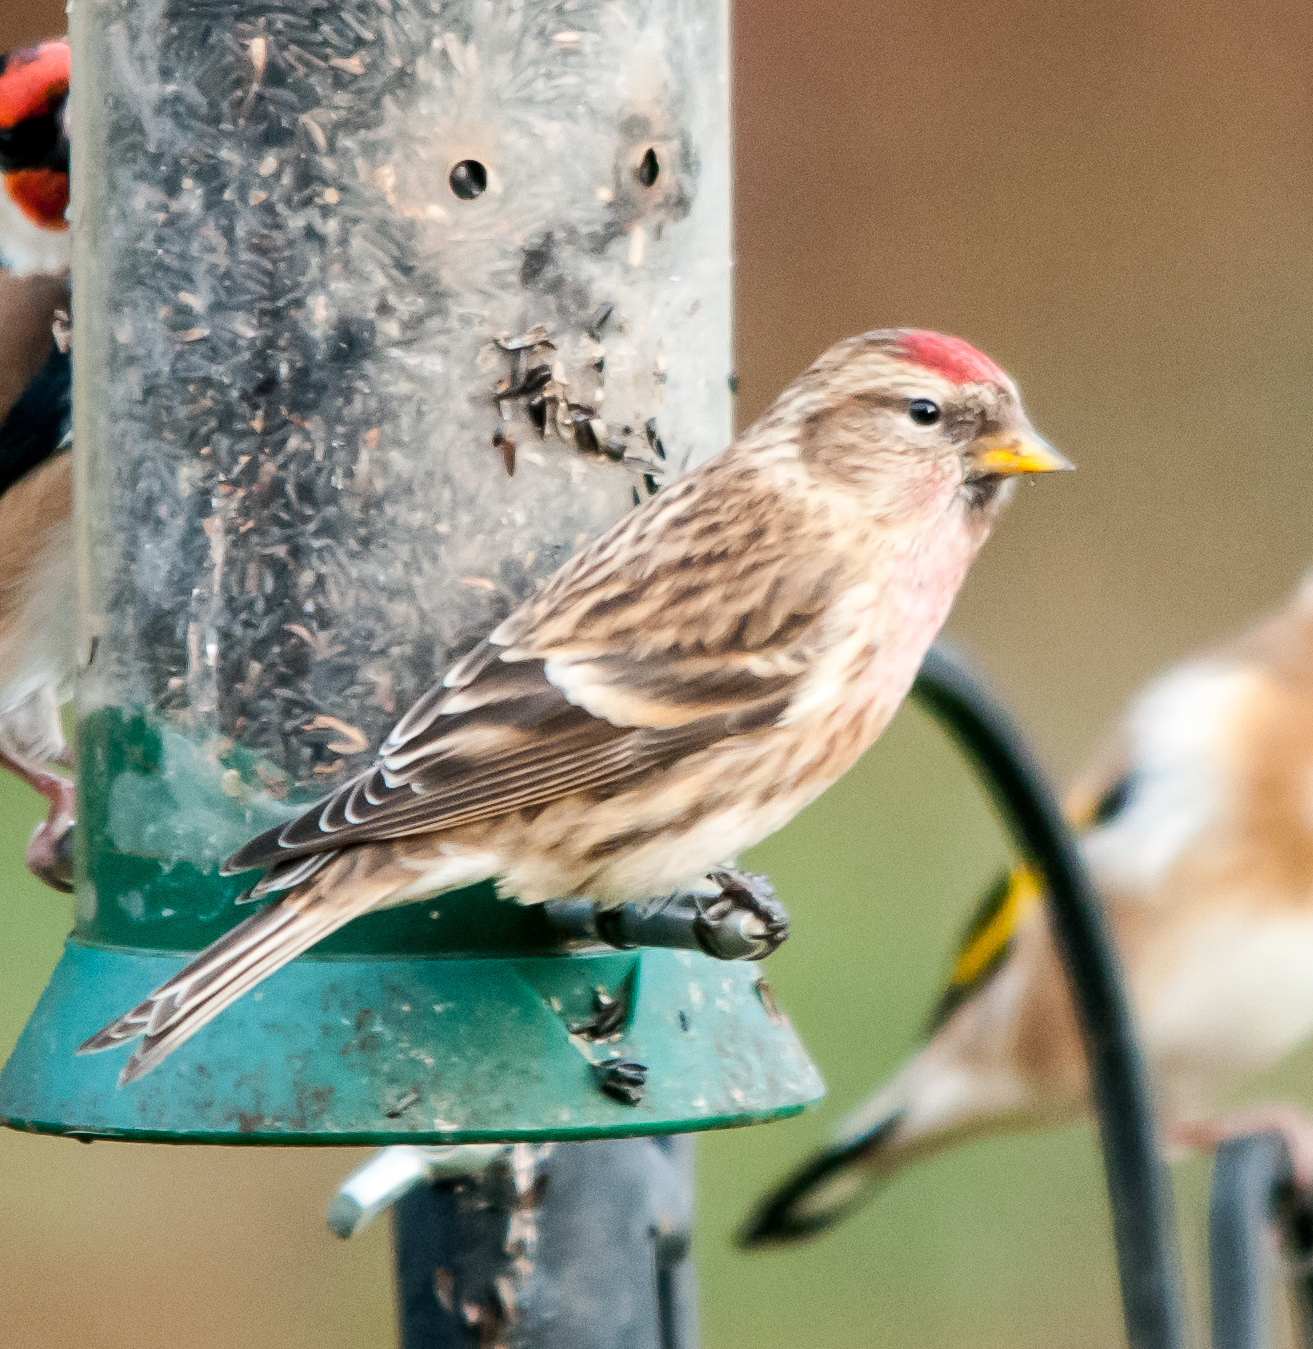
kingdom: Animalia
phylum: Chordata
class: Aves
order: Passeriformes
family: Fringillidae
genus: Acanthis
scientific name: Acanthis flammea
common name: Common redpoll
